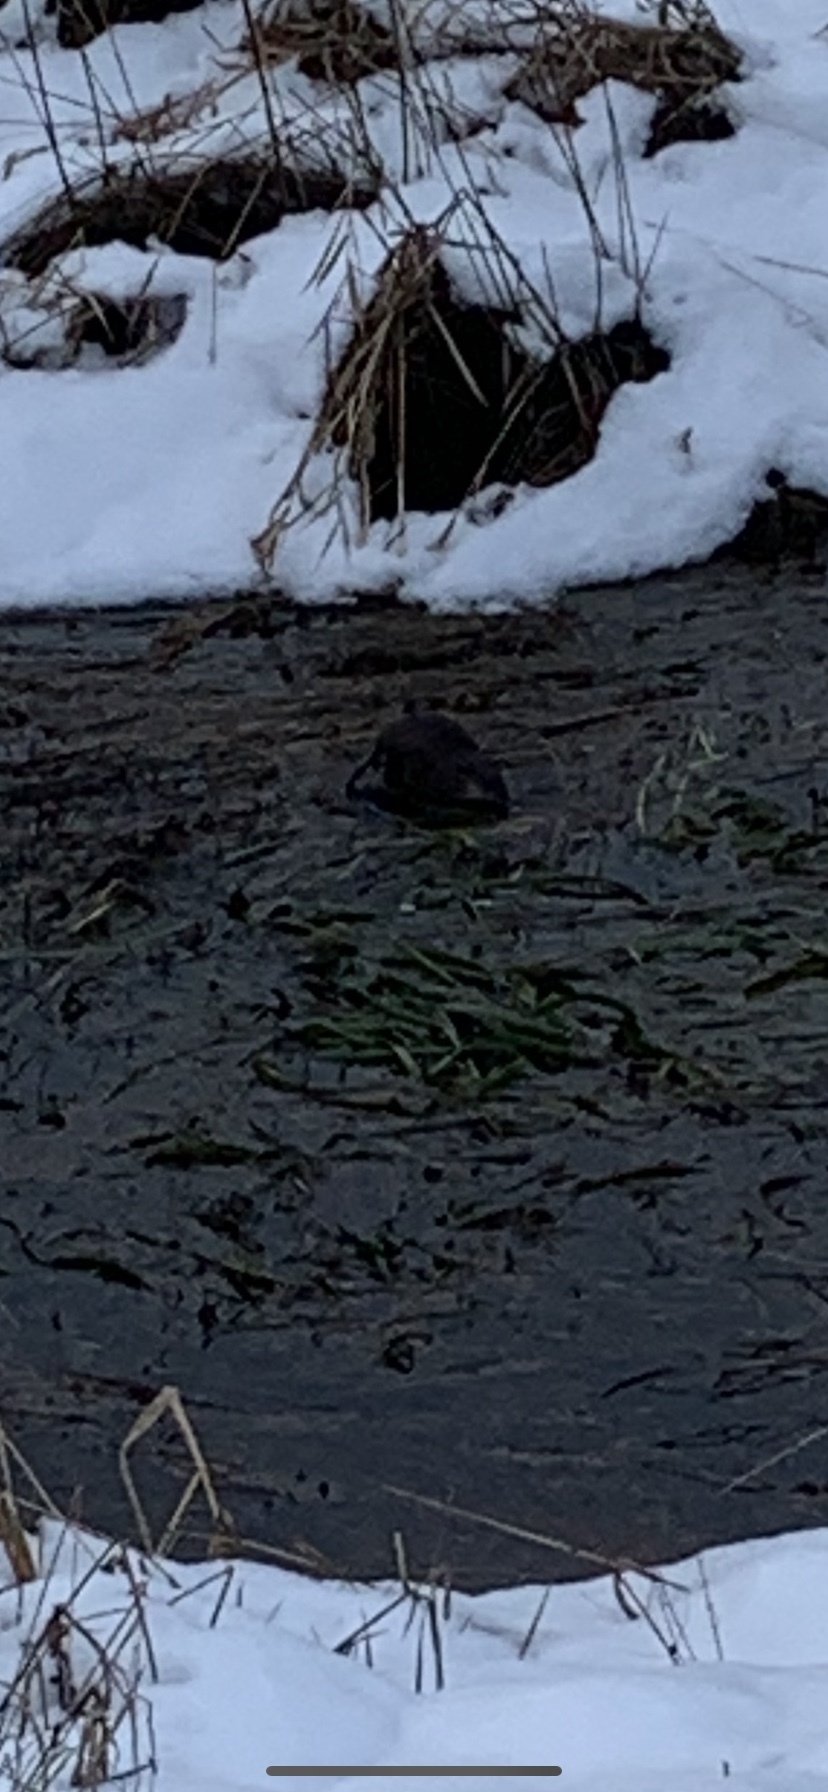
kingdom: Animalia
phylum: Chordata
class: Mammalia
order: Rodentia
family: Cricetidae
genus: Ondatra
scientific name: Ondatra zibethicus
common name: Muskrat
